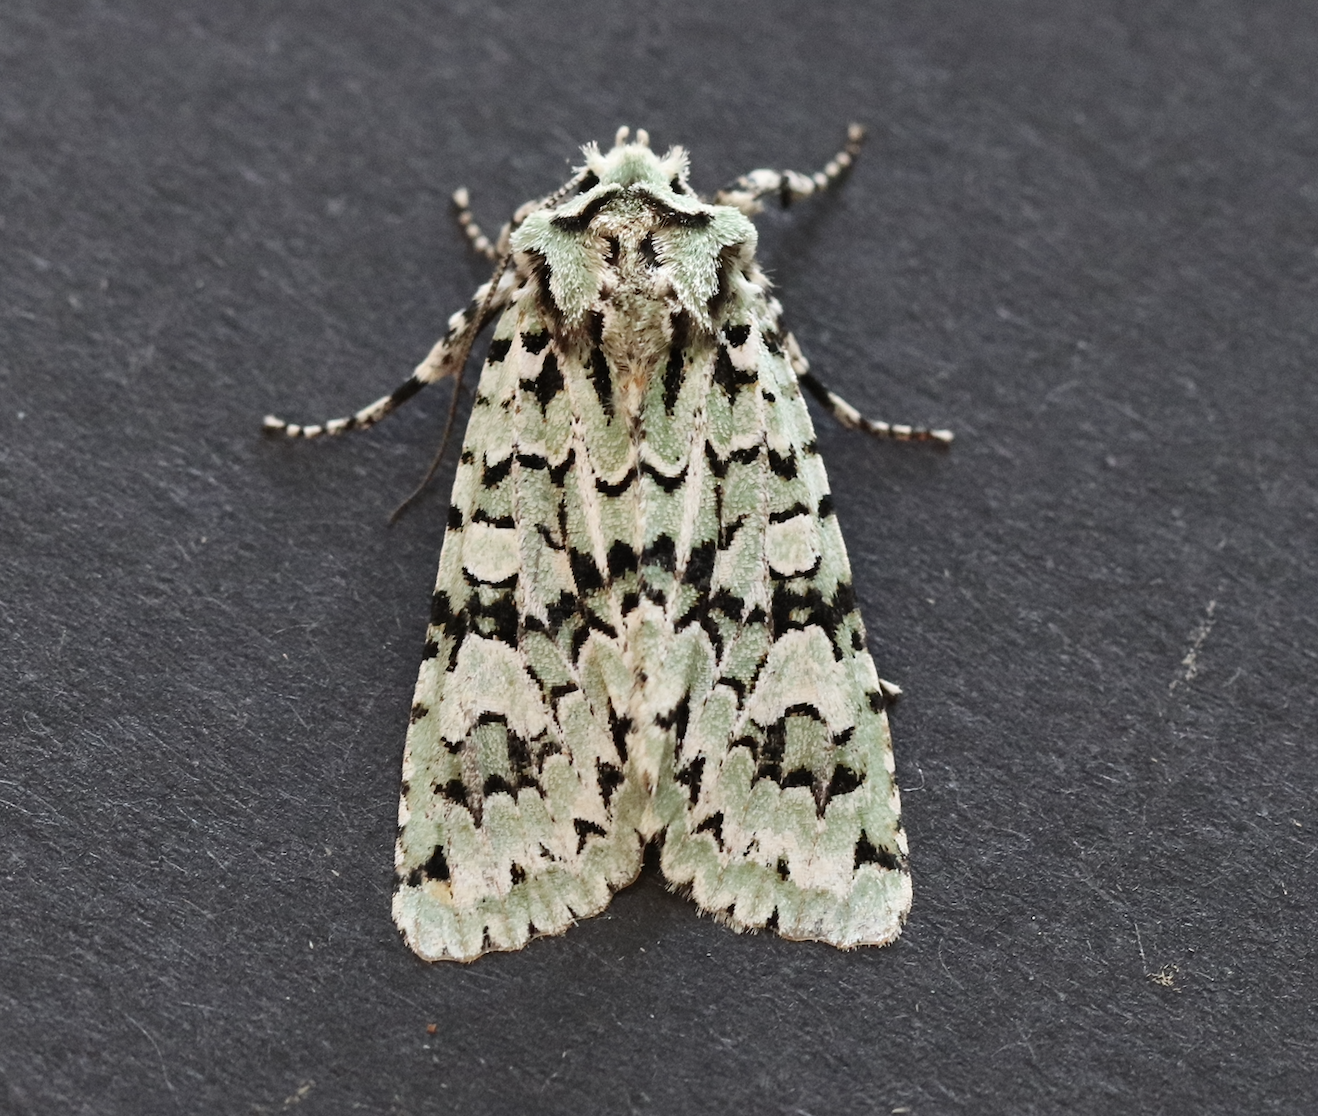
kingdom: Animalia
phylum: Arthropoda
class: Insecta
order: Lepidoptera
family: Noctuidae
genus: Griposia
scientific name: Griposia aprilina
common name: Merveille du jour
